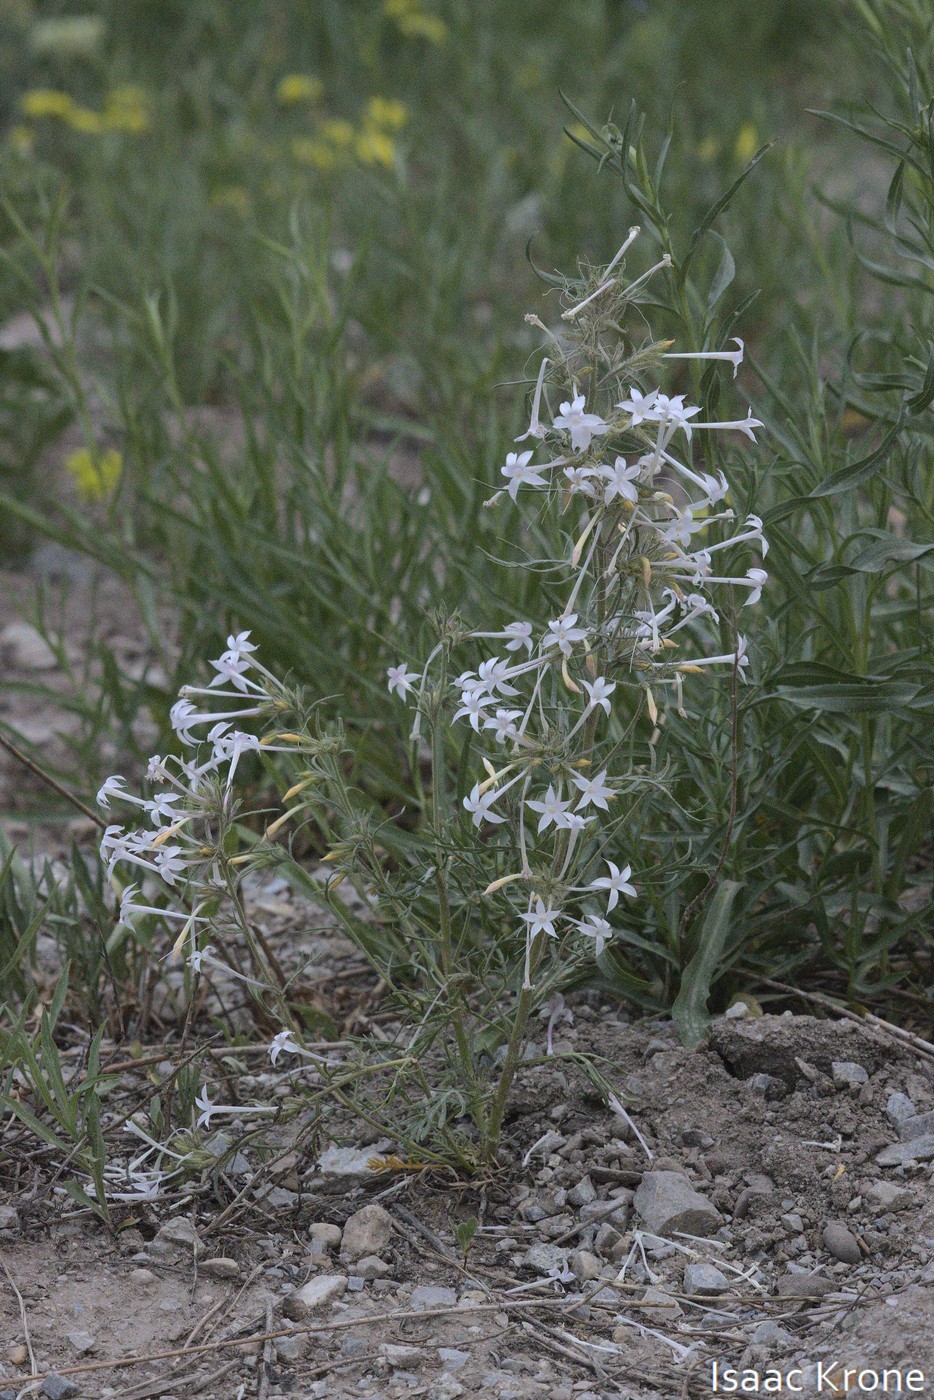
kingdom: Plantae
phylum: Tracheophyta
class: Magnoliopsida
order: Ericales
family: Polemoniaceae
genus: Ipomopsis
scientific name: Ipomopsis tenuituba
